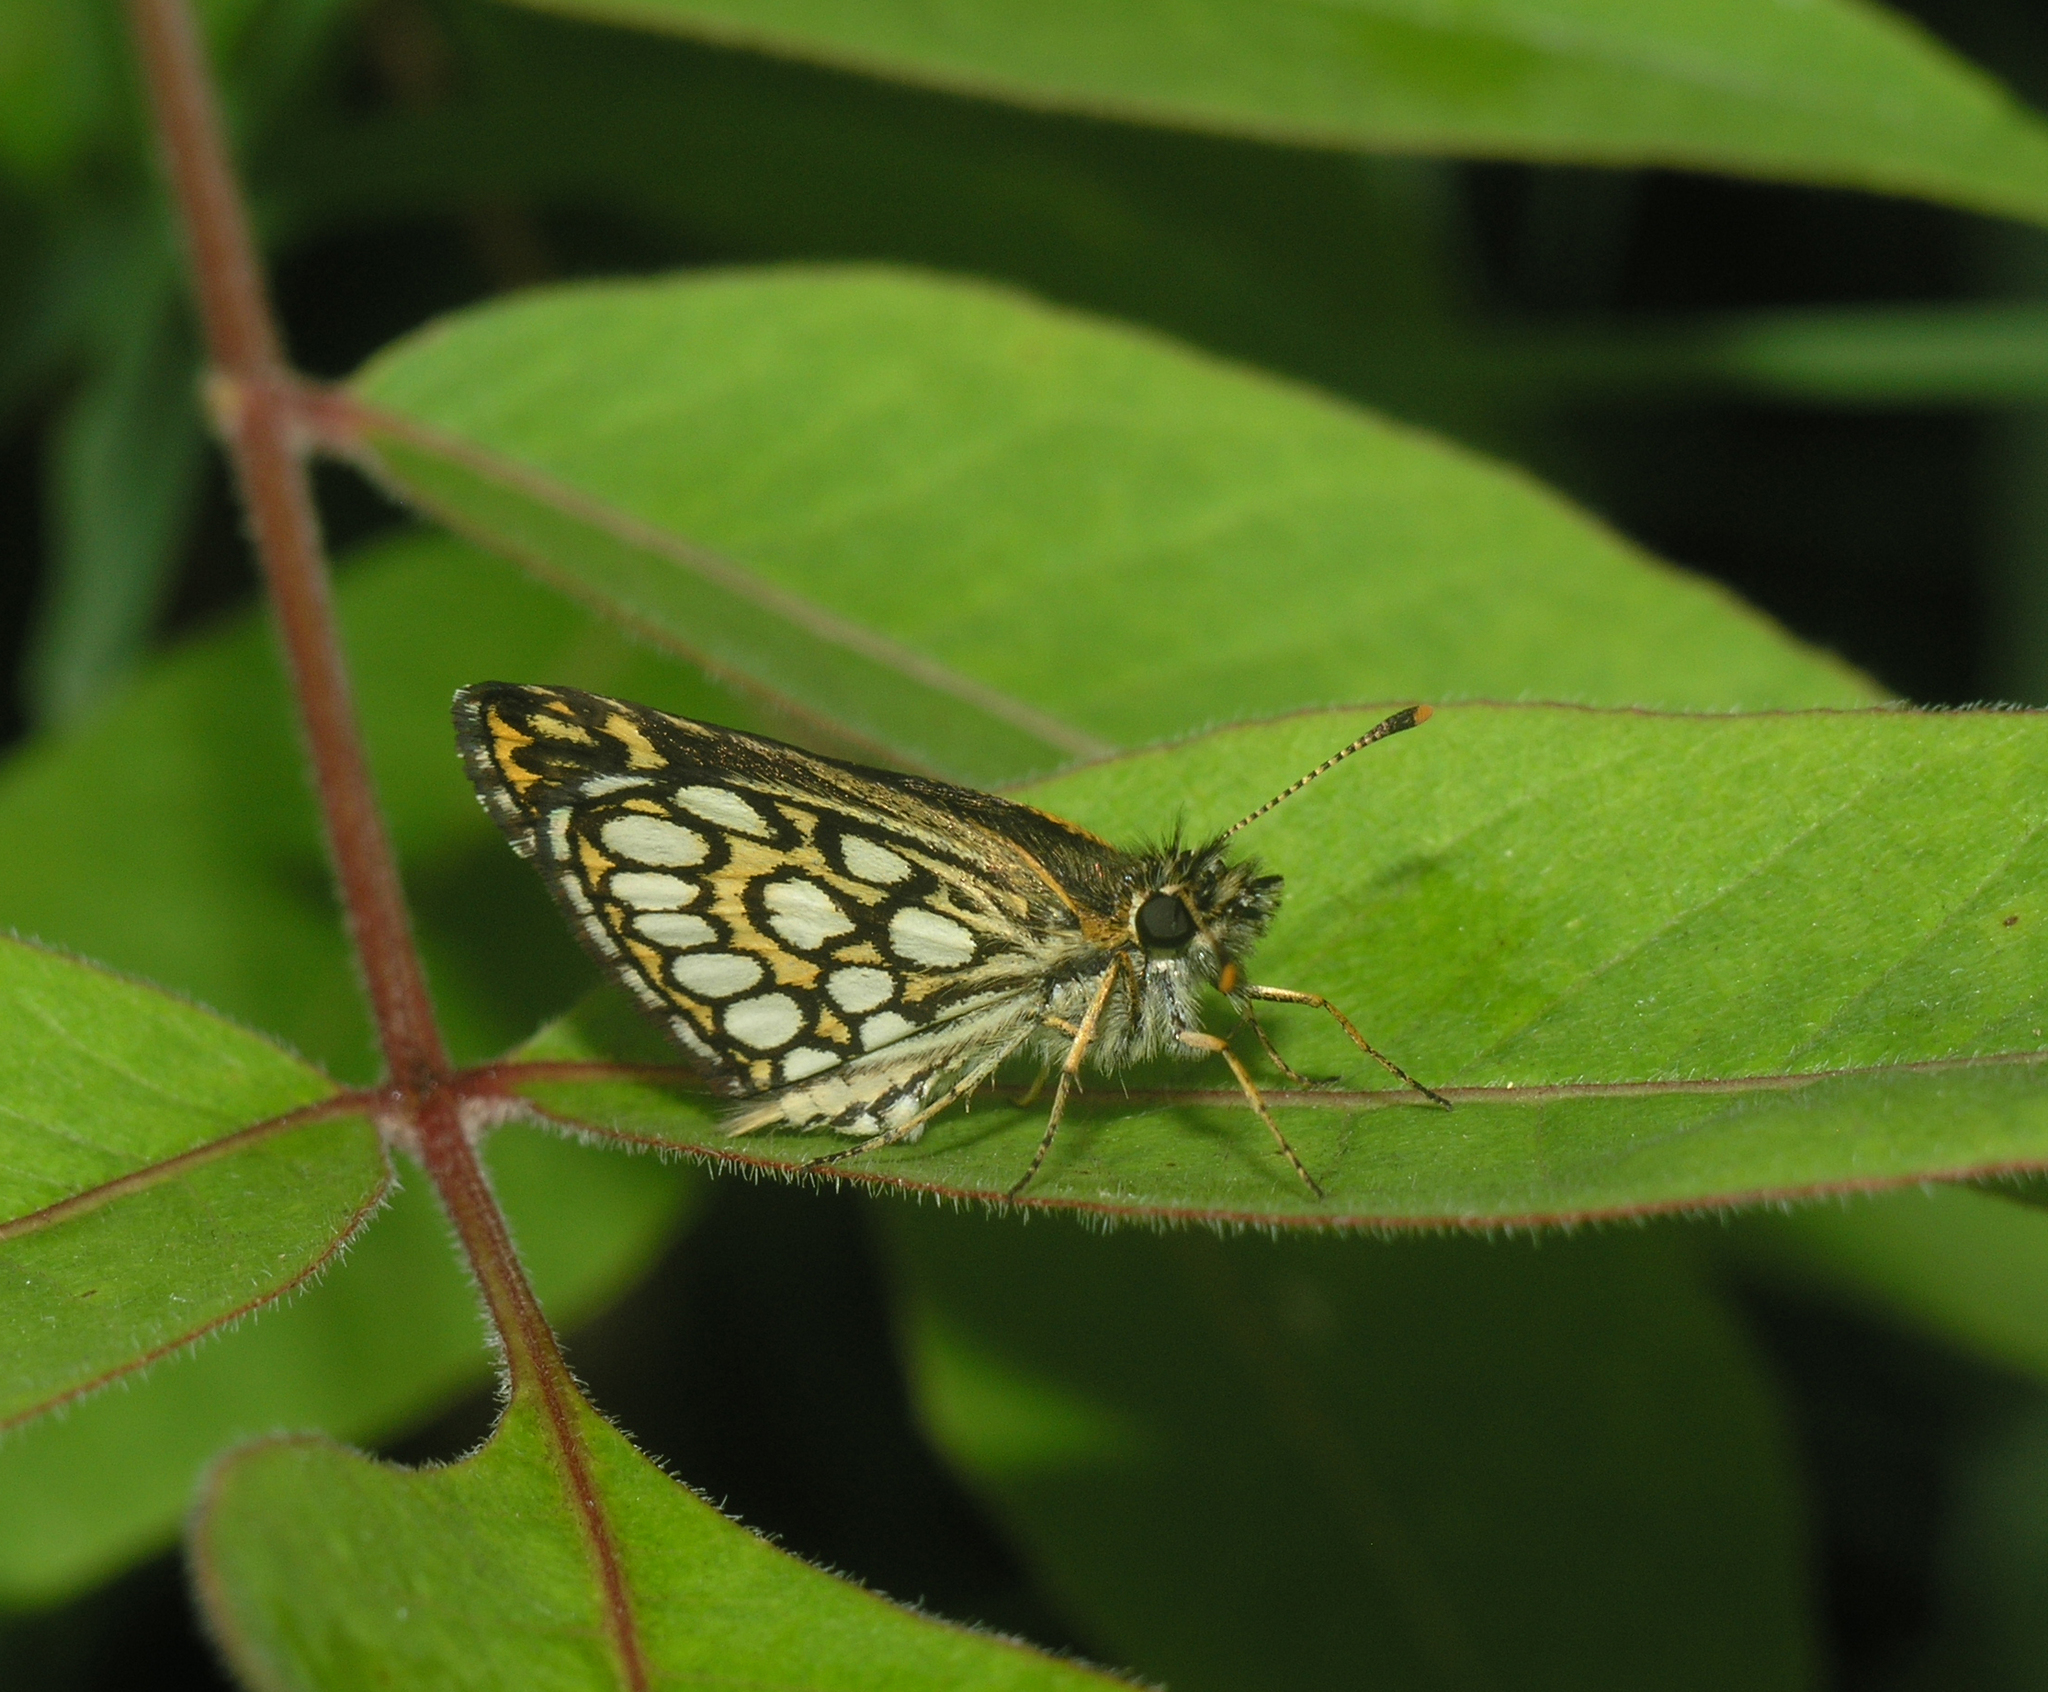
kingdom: Animalia
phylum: Arthropoda
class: Insecta
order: Lepidoptera
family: Hesperiidae
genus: Heteropterus
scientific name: Heteropterus morpheus
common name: Large chequered skipper
